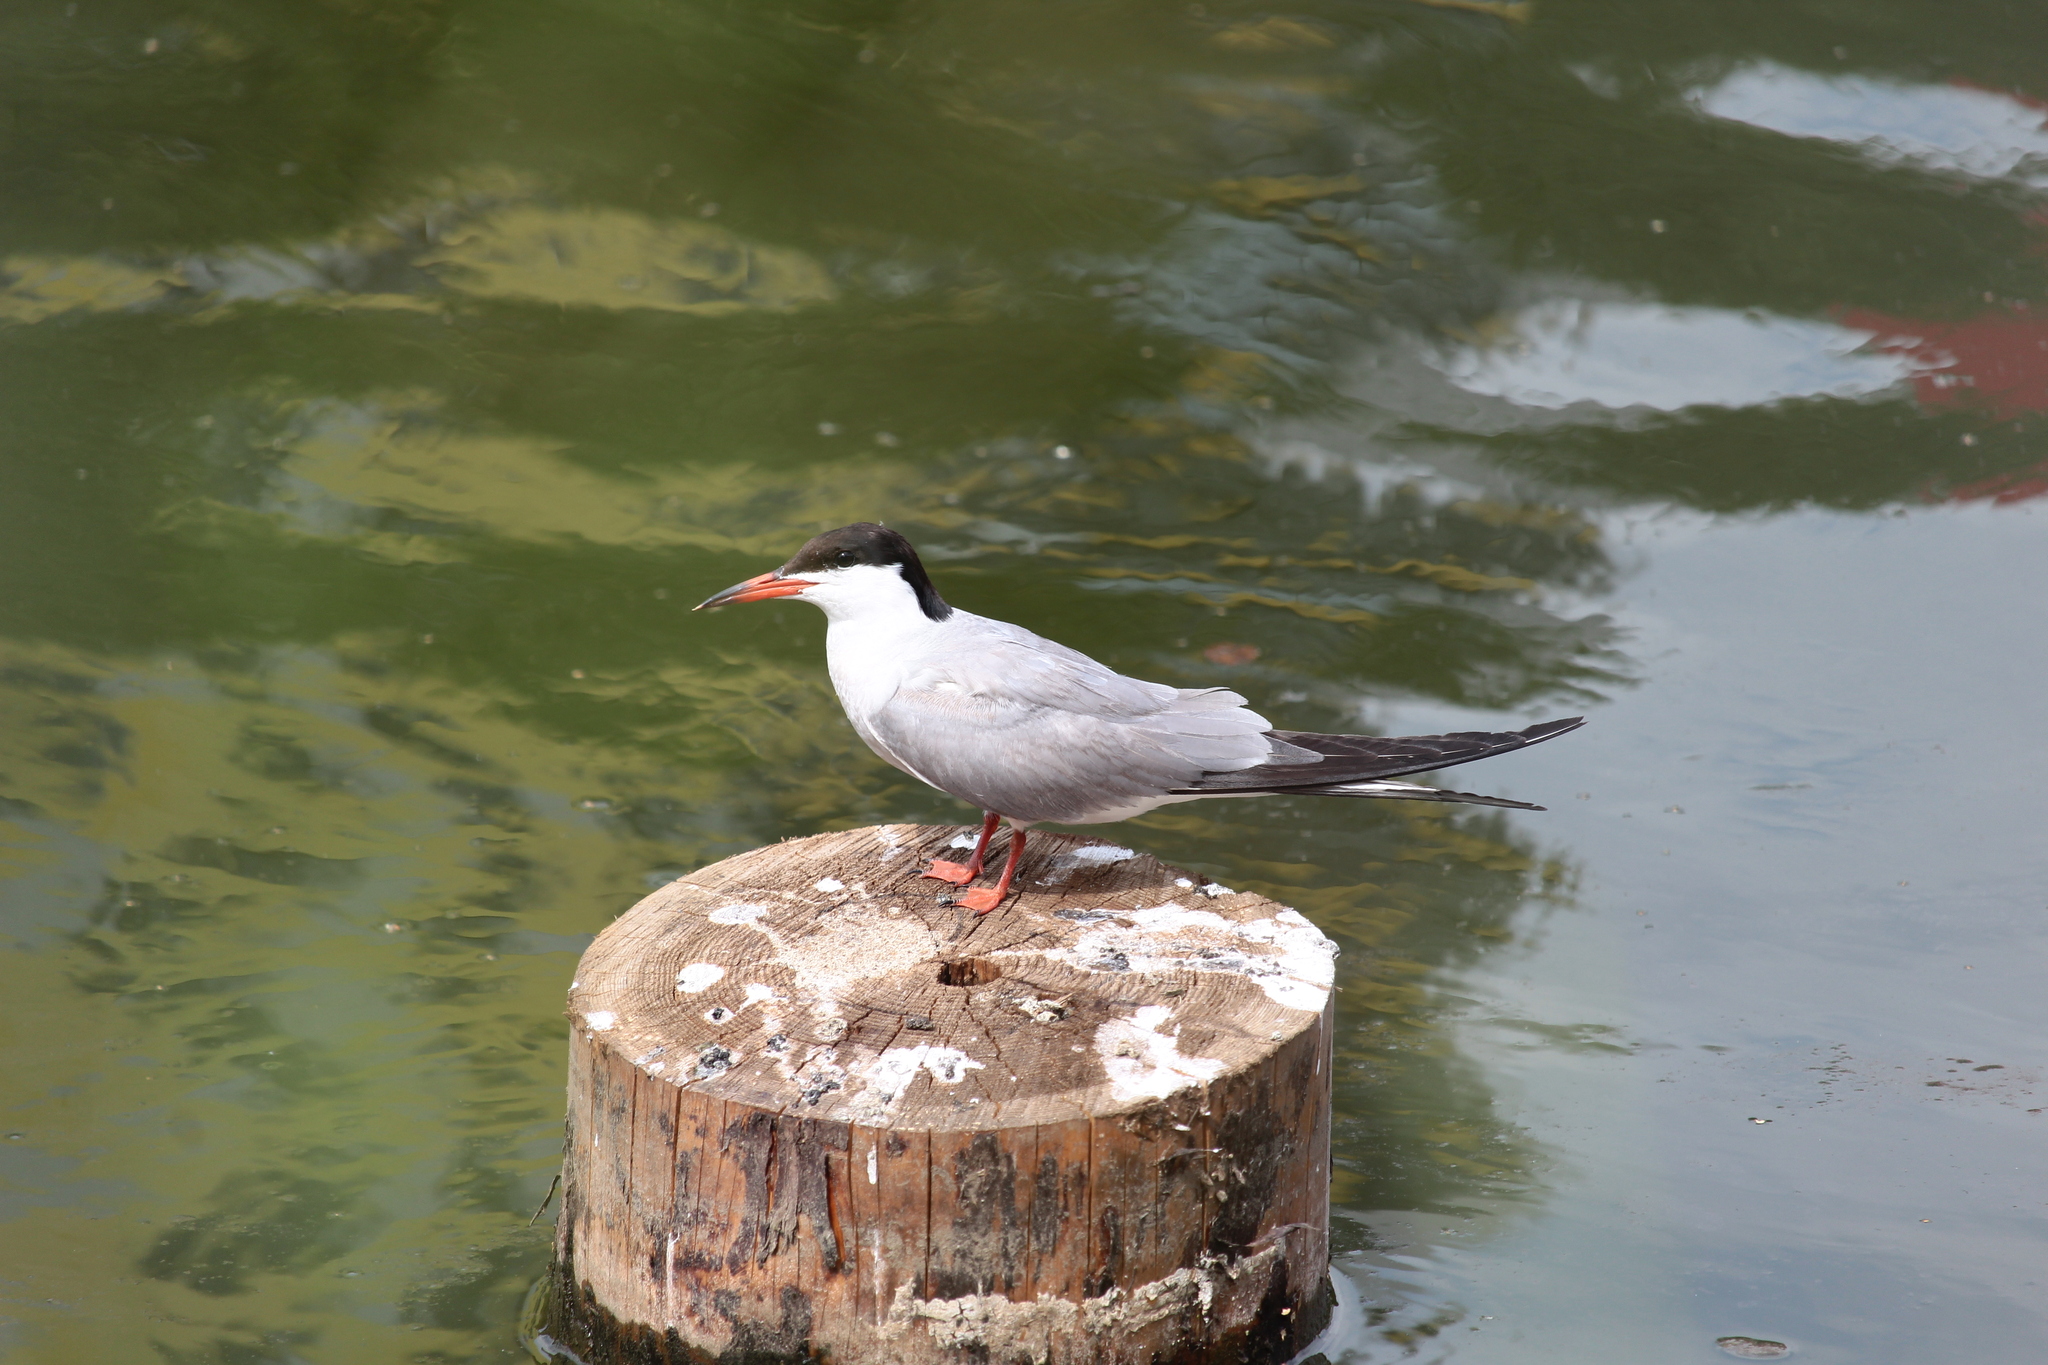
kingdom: Animalia
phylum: Chordata
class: Aves
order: Charadriiformes
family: Laridae
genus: Sterna
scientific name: Sterna hirundo
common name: Common tern
